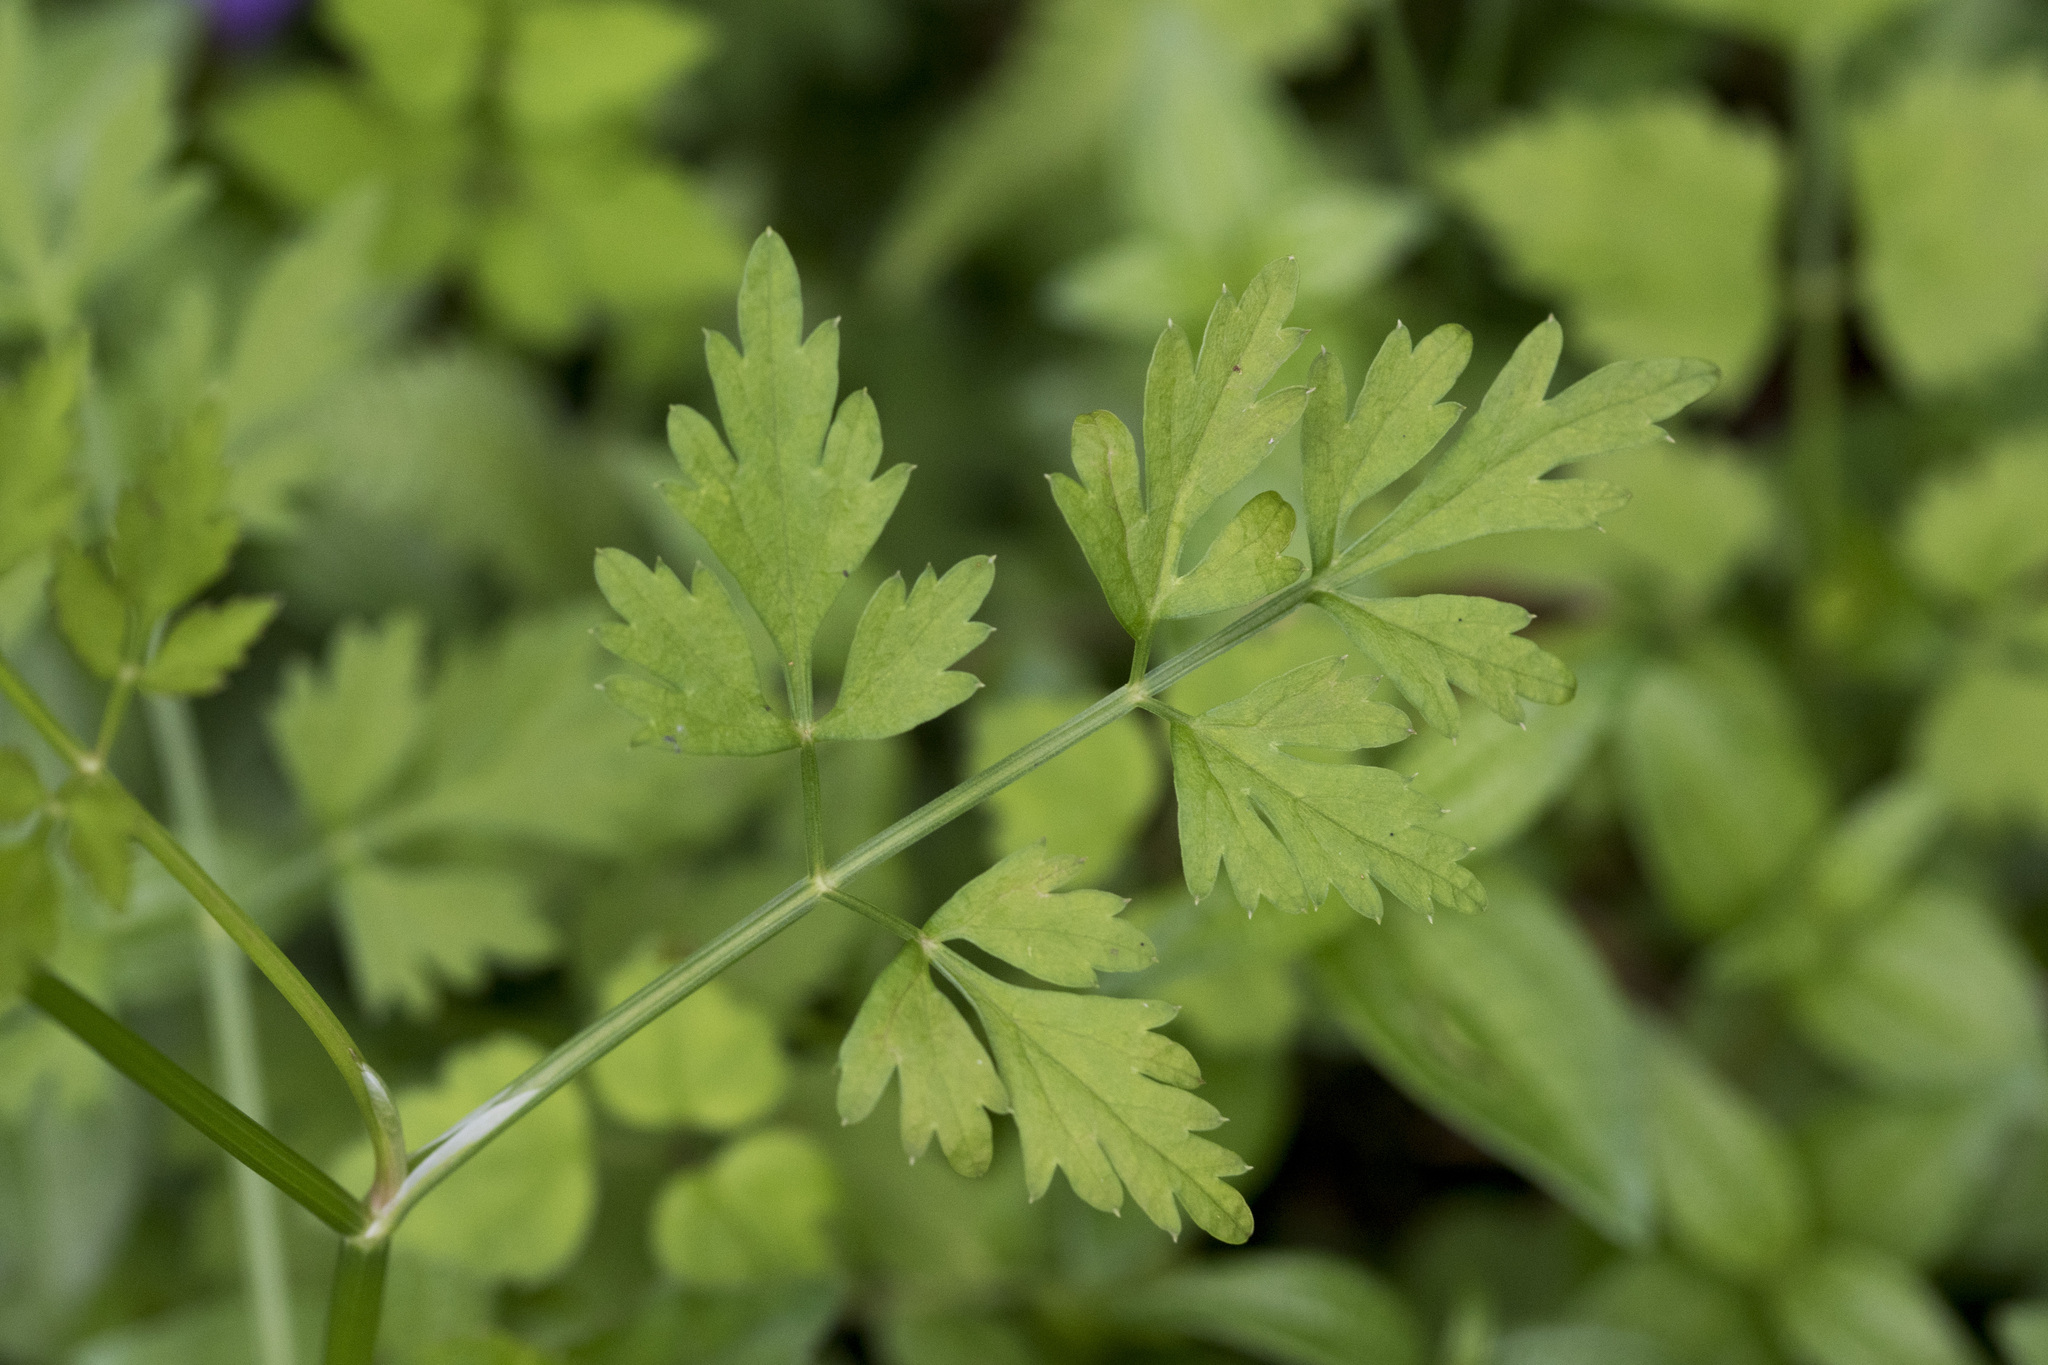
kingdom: Plantae
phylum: Tracheophyta
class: Magnoliopsida
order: Apiales
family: Apiaceae
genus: Oenanthe
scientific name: Oenanthe javanica
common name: Java water-dropwort
